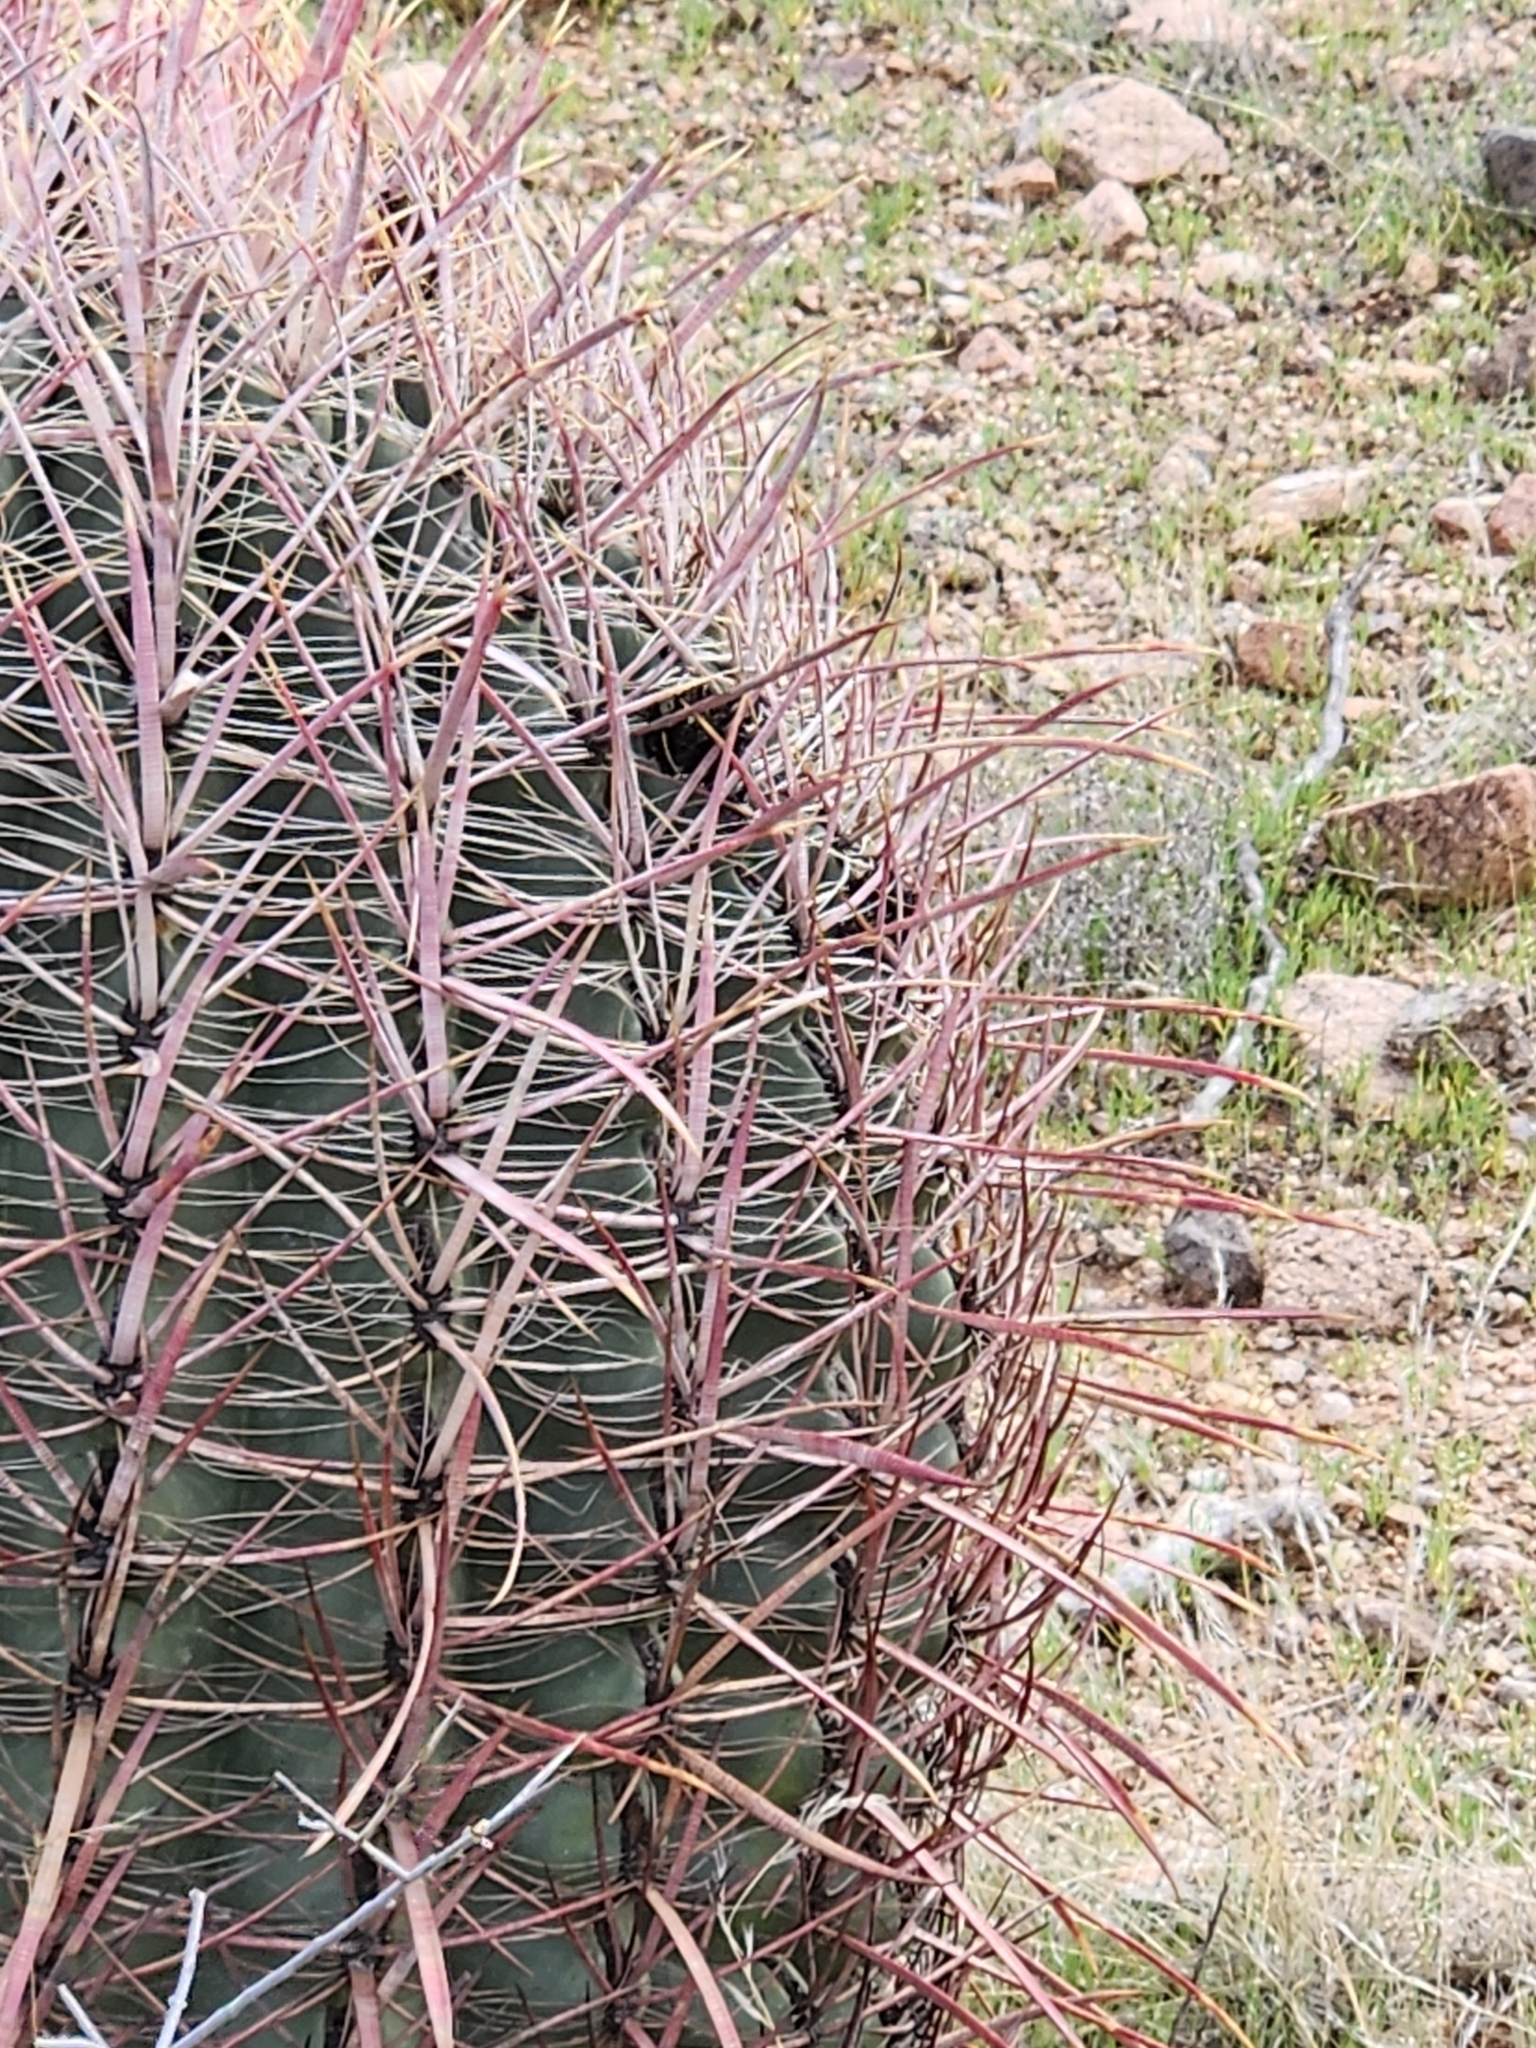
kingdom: Plantae
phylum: Tracheophyta
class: Magnoliopsida
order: Caryophyllales
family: Cactaceae
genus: Ferocactus
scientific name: Ferocactus cylindraceus
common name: California barrel cactus
